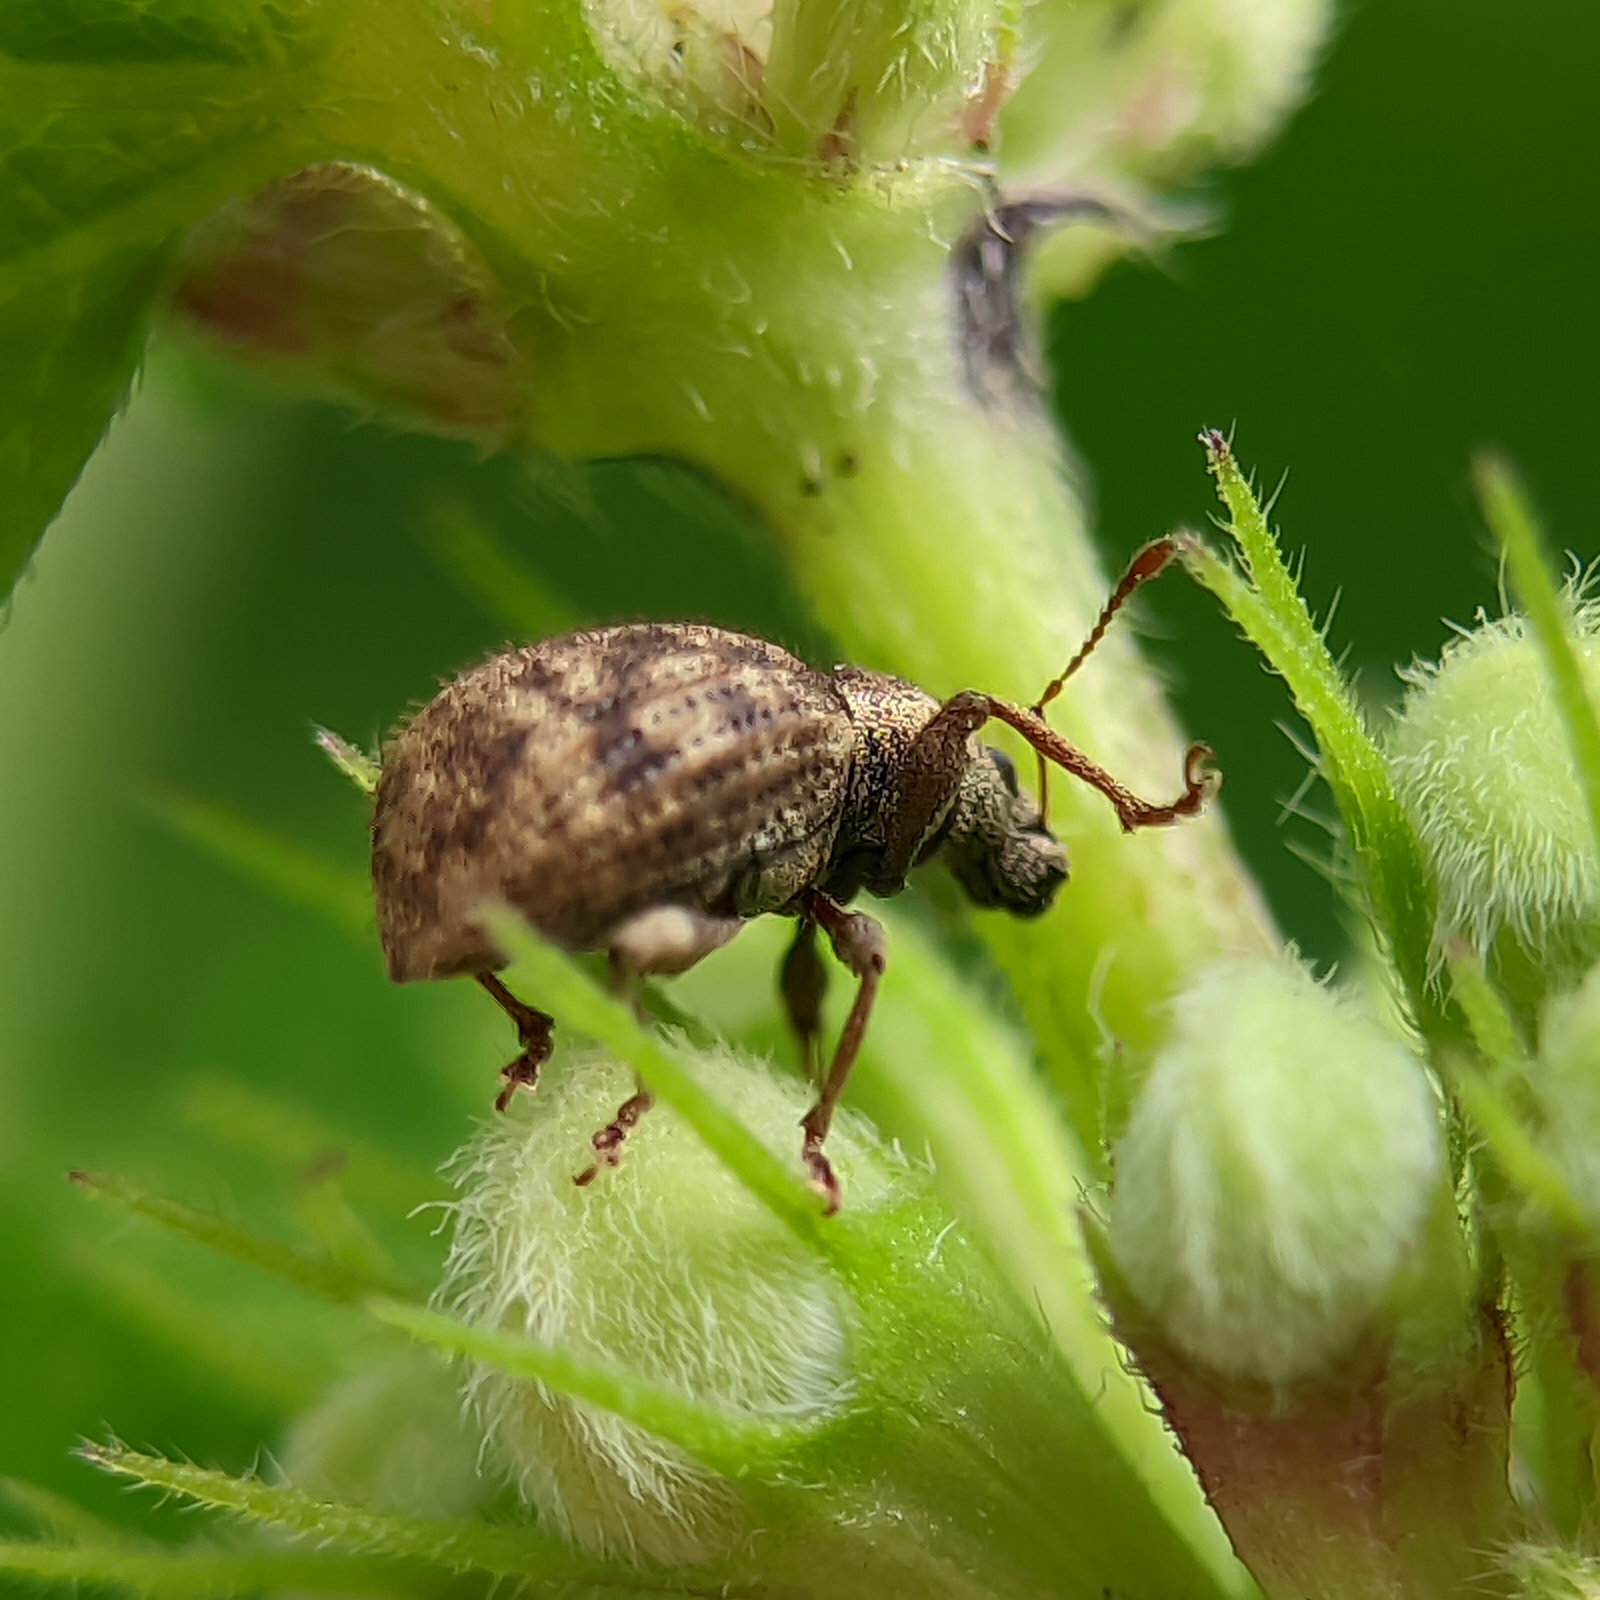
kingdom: Animalia
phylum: Arthropoda
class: Insecta
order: Coleoptera
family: Curculionidae
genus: Sciaphilus
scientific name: Sciaphilus asperatus
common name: Weevil
